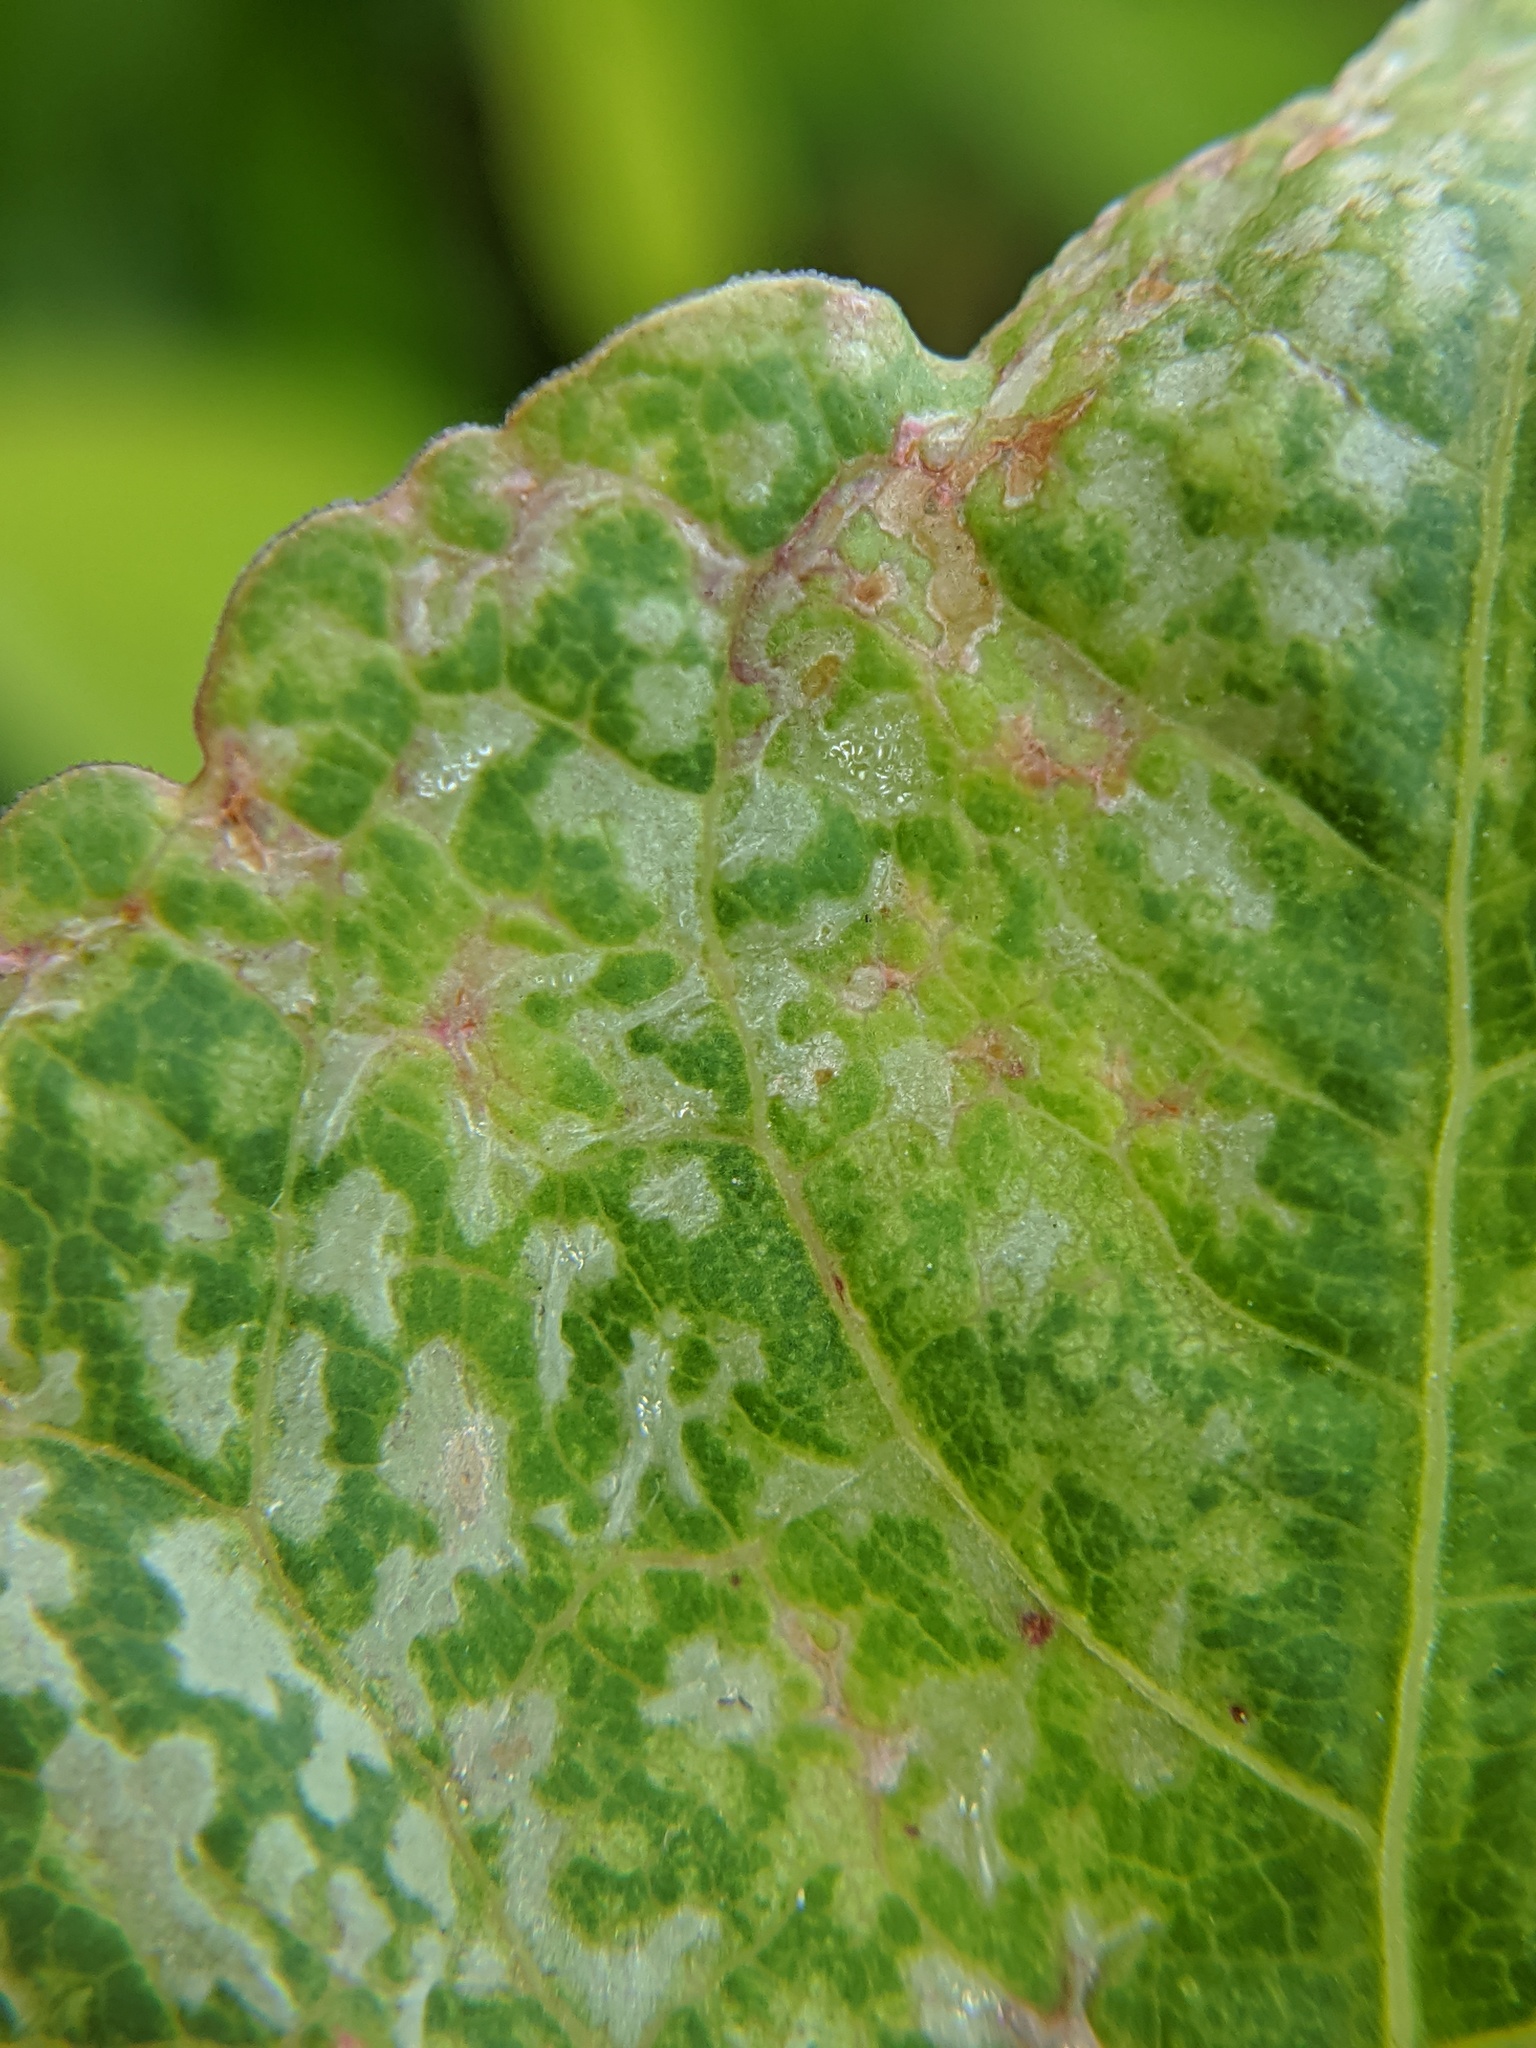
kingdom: Plantae
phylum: Tracheophyta
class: Magnoliopsida
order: Caryophyllales
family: Polygonaceae
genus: Reynoutria
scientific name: Reynoutria japonica
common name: Japanese knotweed
